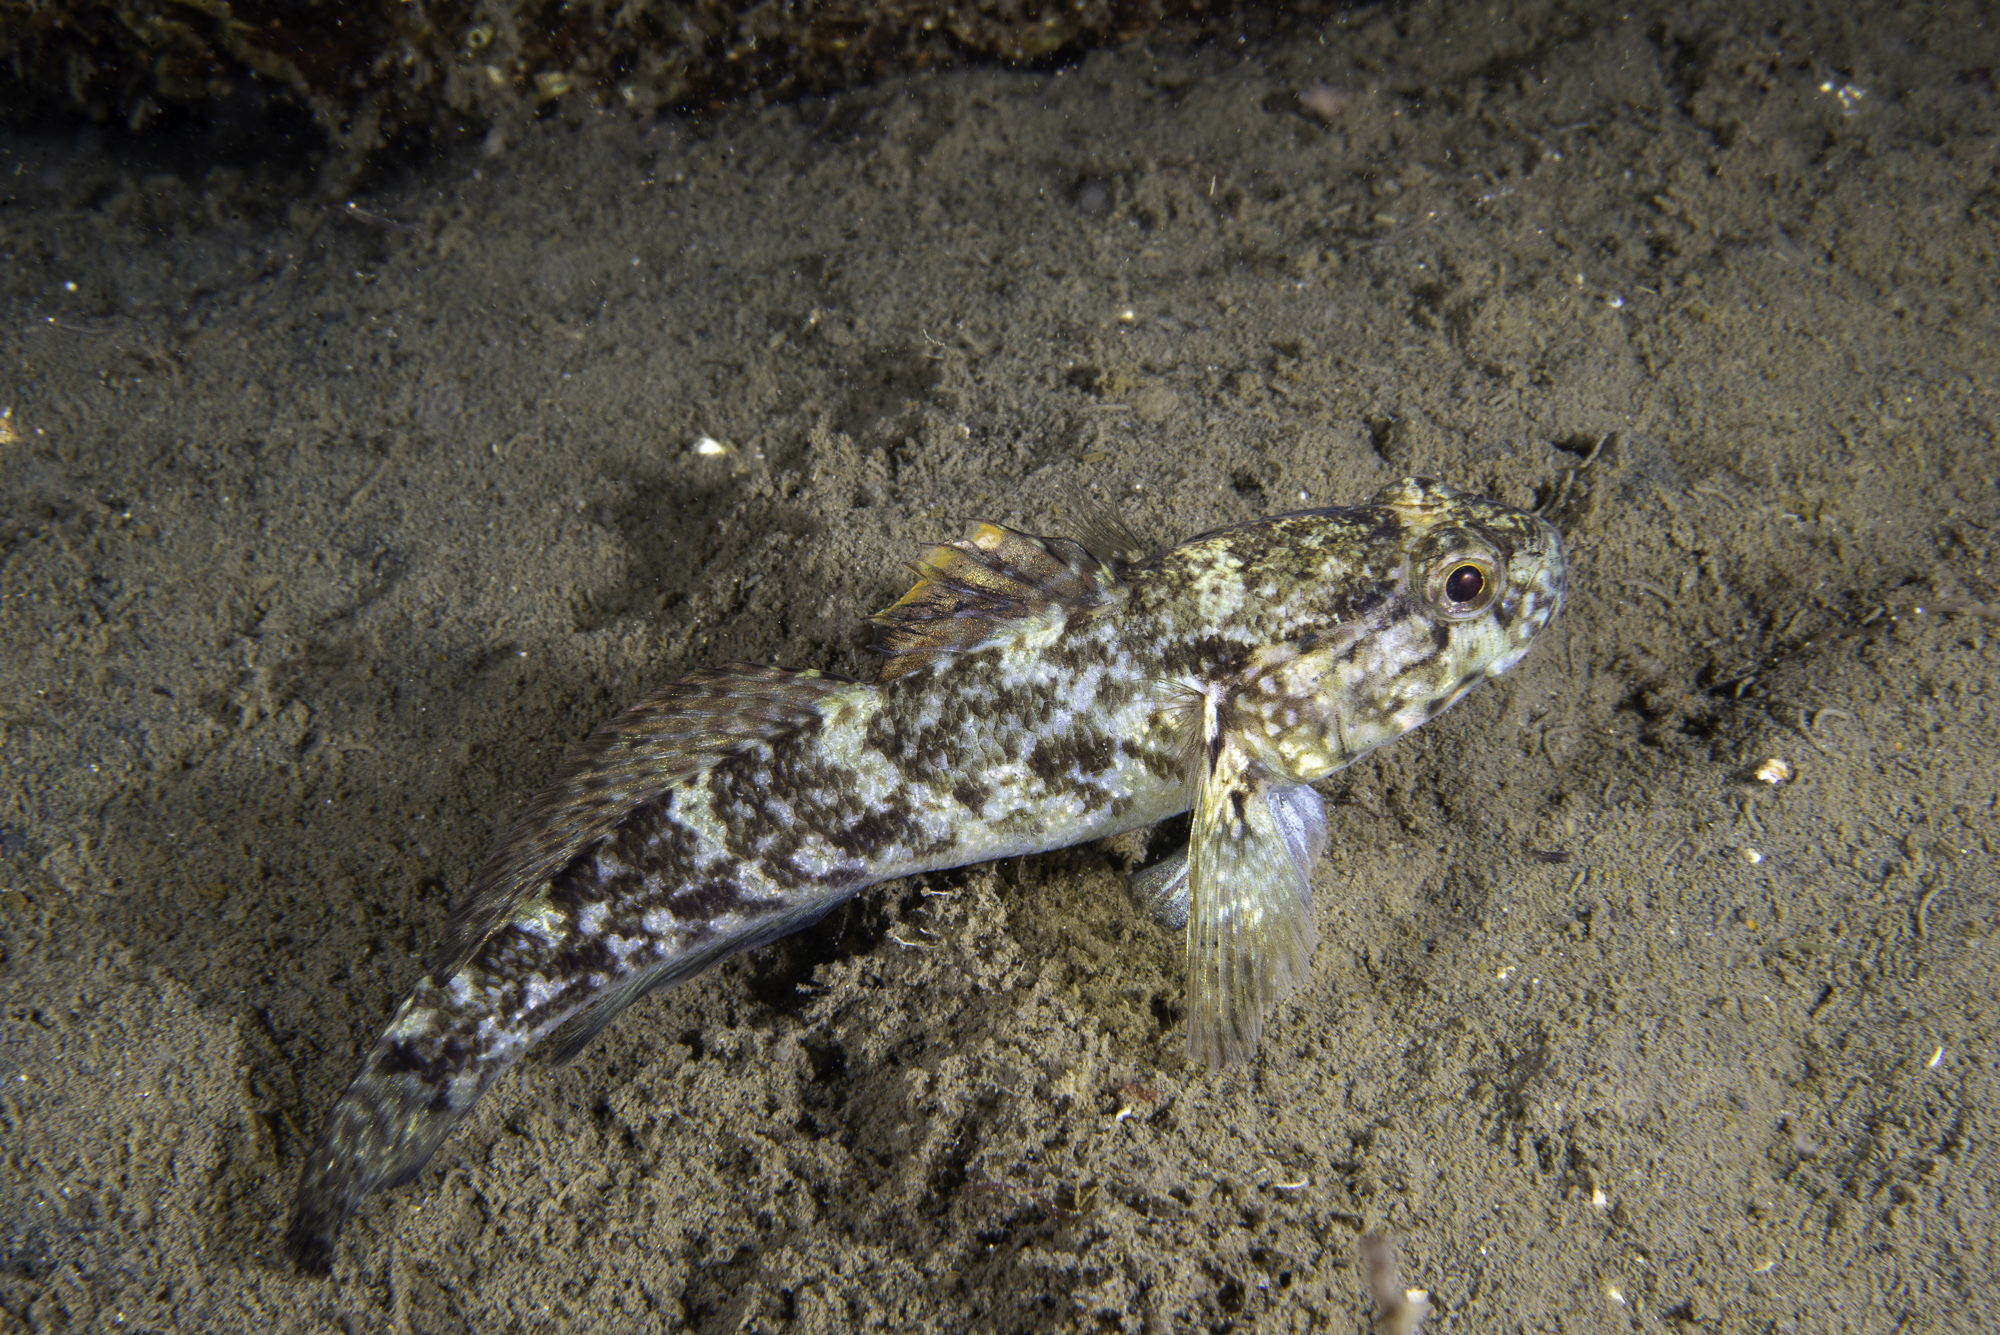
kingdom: Animalia
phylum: Chordata
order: Perciformes
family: Gobiidae
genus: Gobius
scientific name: Gobius paganellus
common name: Rock goby
